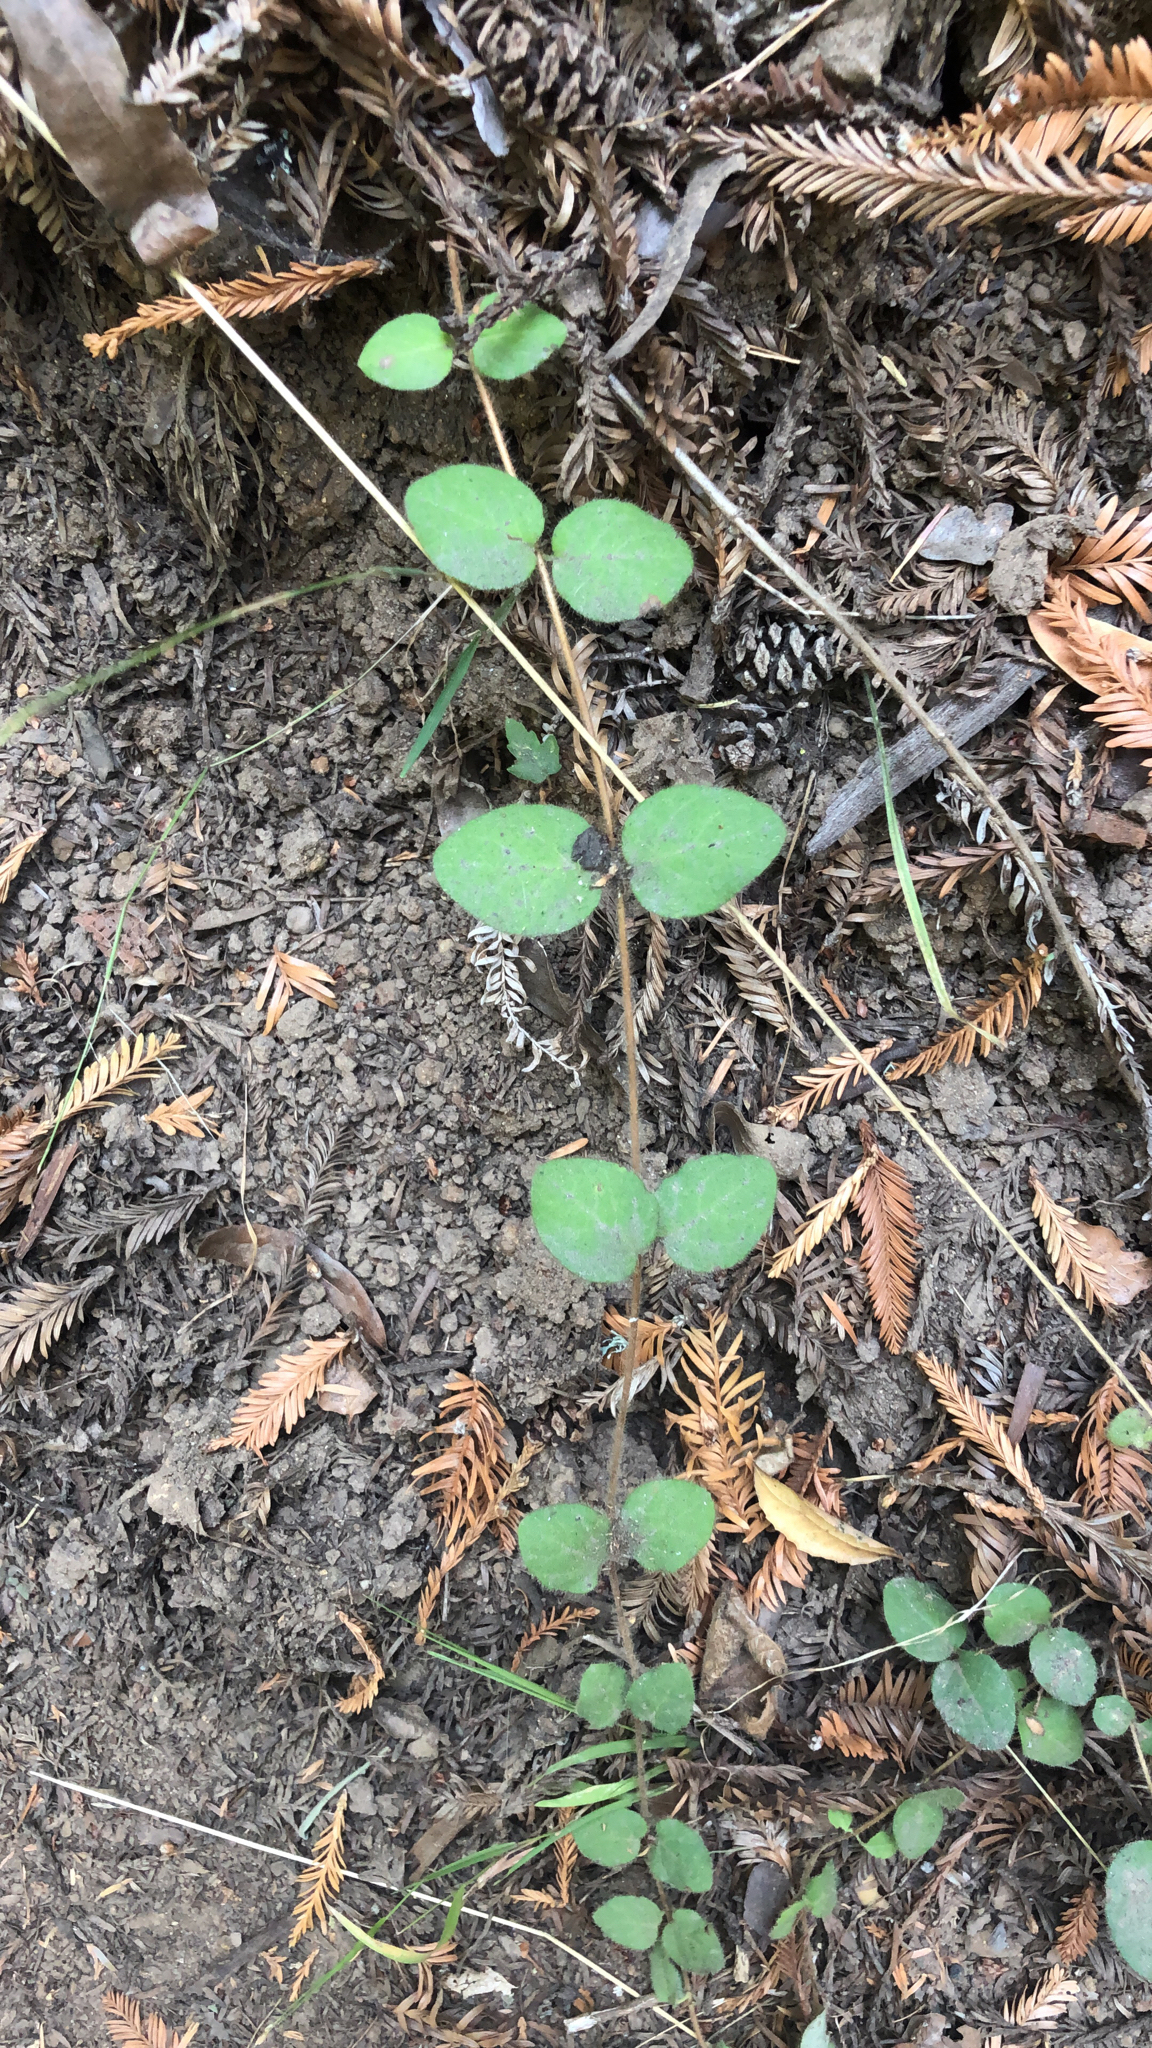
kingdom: Plantae
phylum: Tracheophyta
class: Magnoliopsida
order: Dipsacales
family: Caprifoliaceae
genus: Lonicera
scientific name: Lonicera hispidula
